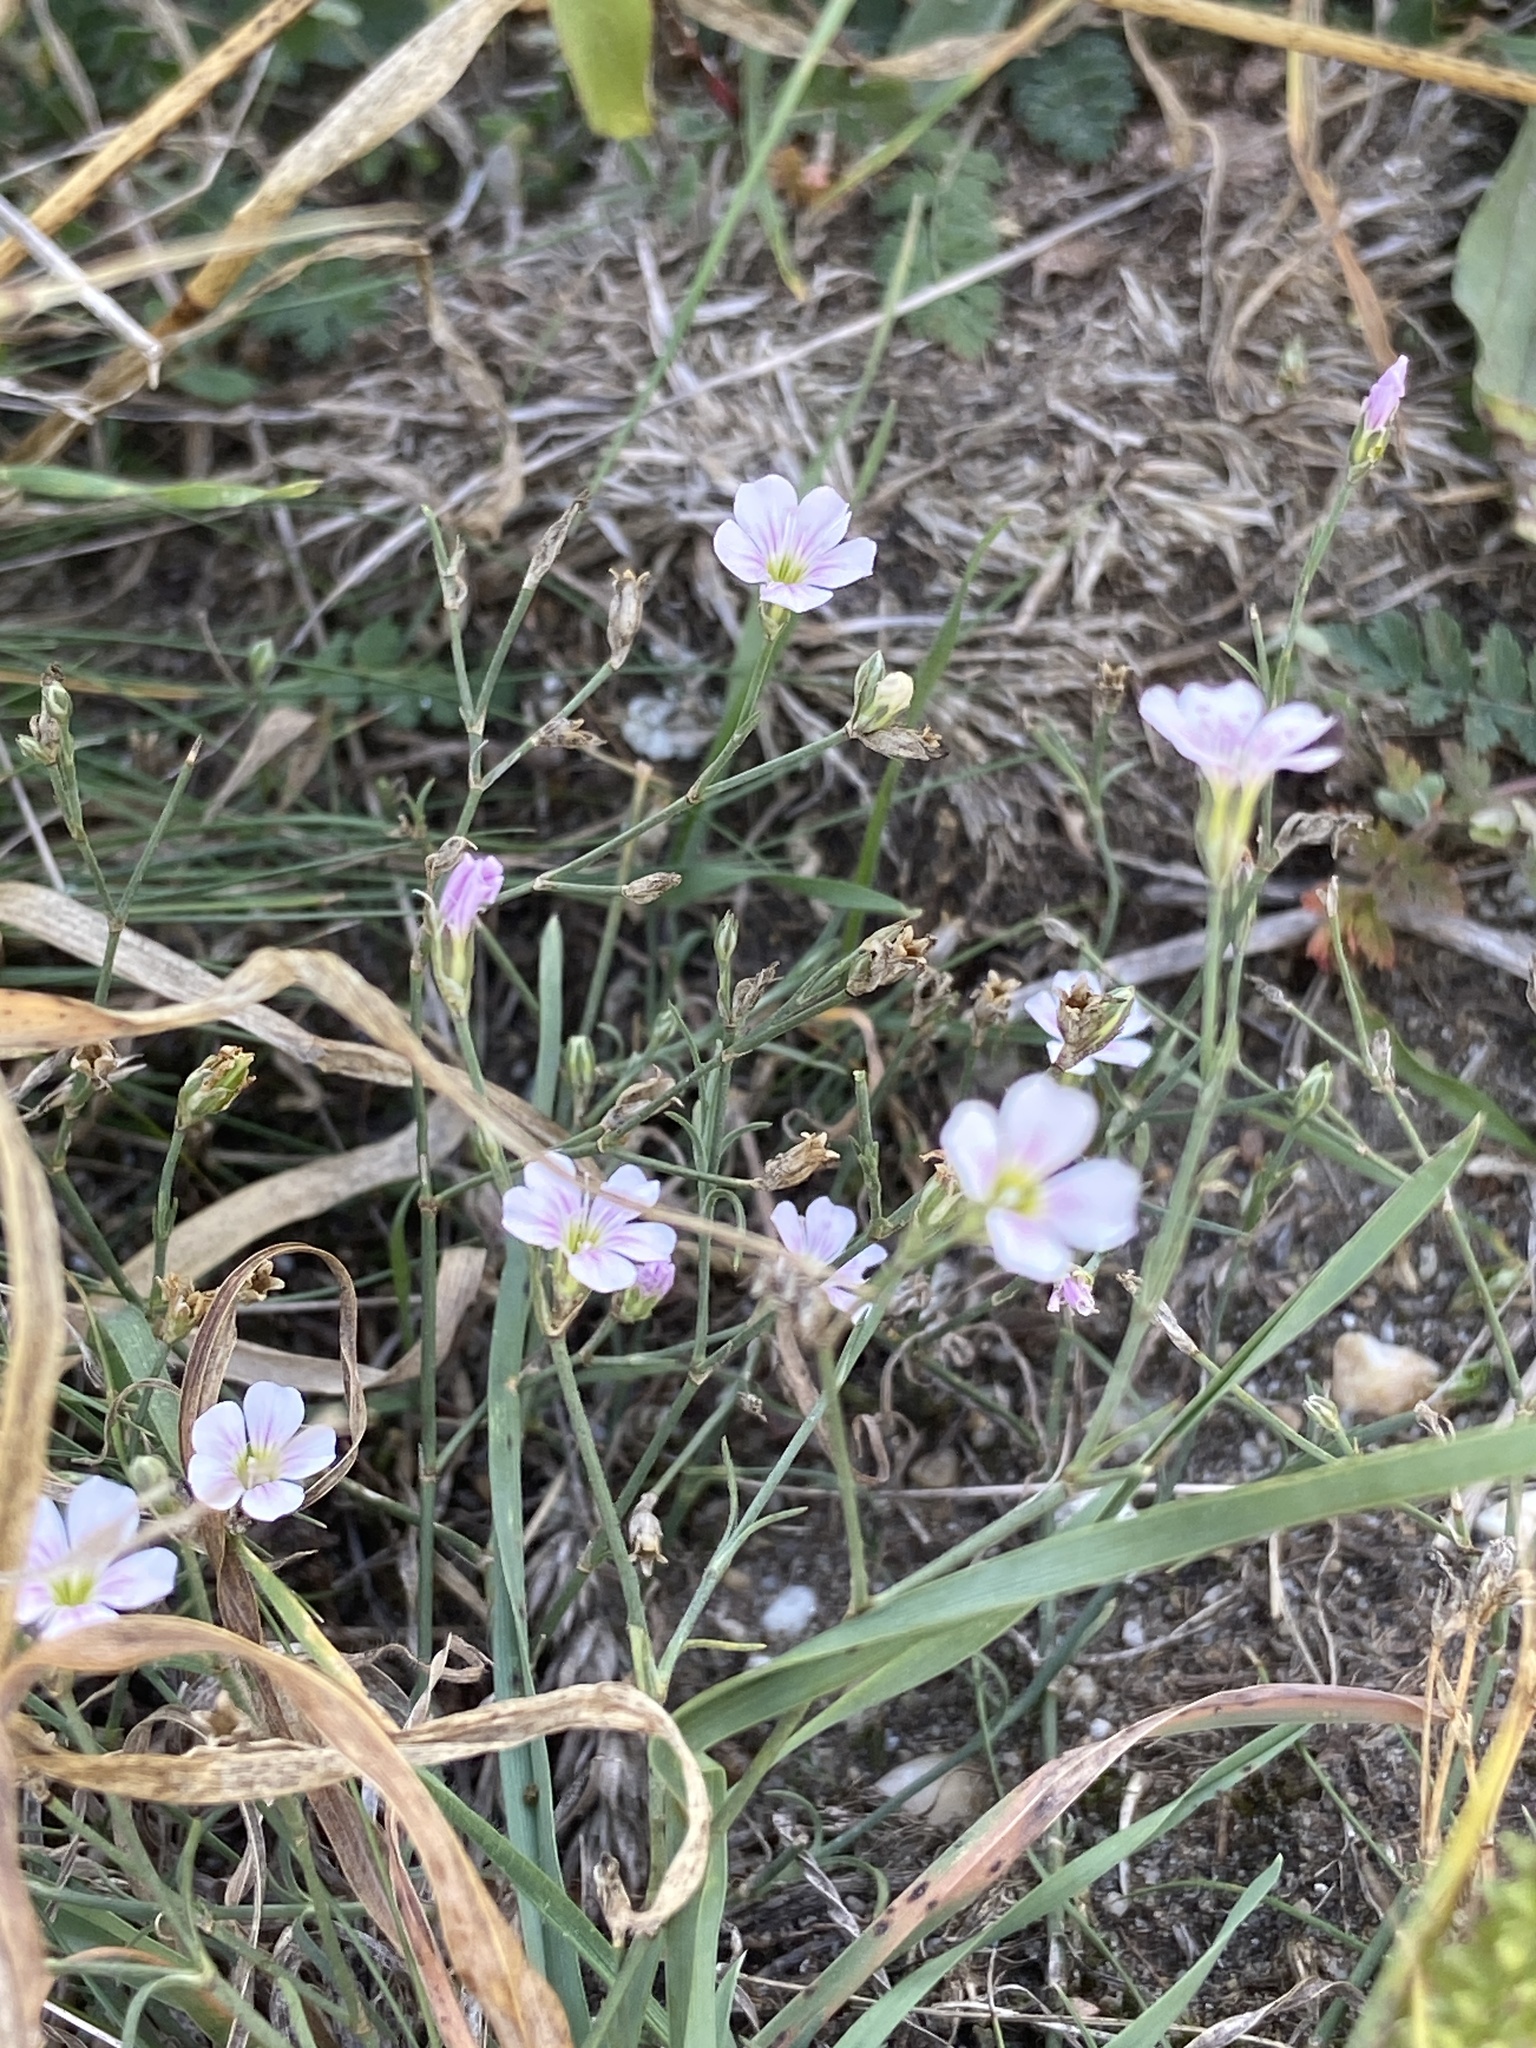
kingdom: Plantae
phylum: Tracheophyta
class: Magnoliopsida
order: Caryophyllales
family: Caryophyllaceae
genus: Petrorhagia
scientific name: Petrorhagia saxifraga
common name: Tunicflower
